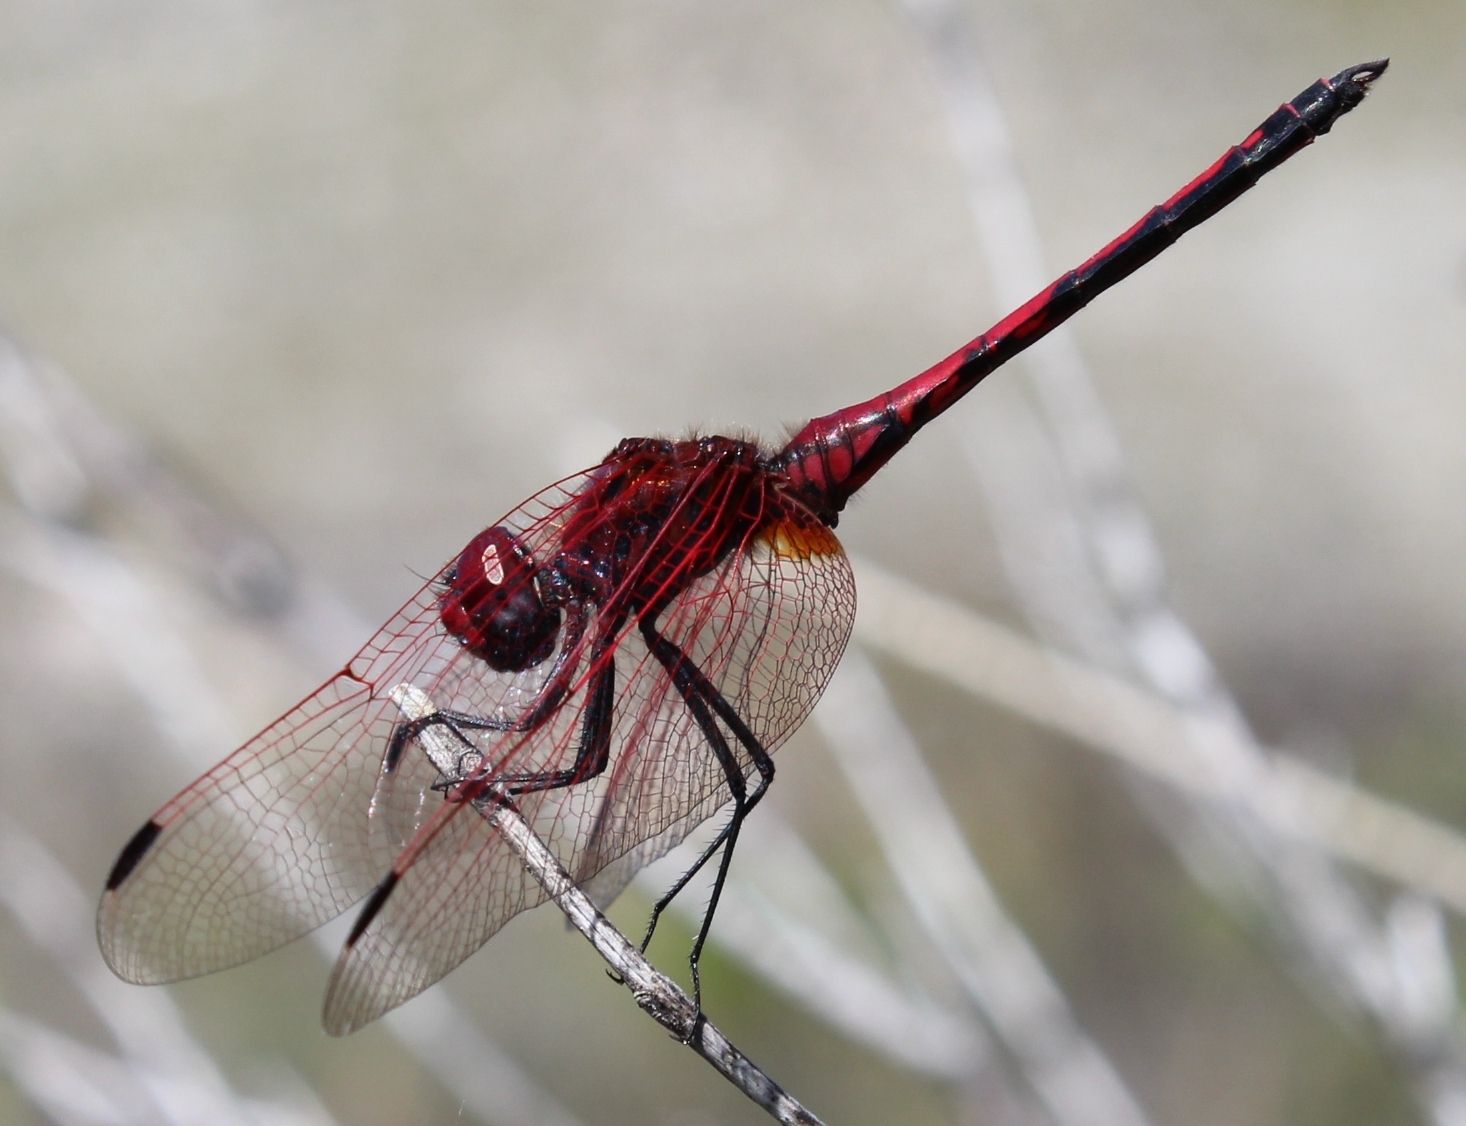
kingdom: Animalia
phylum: Arthropoda
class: Insecta
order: Odonata
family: Libellulidae
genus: Trithemis
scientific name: Trithemis arteriosa
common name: Red-veined dropwing
